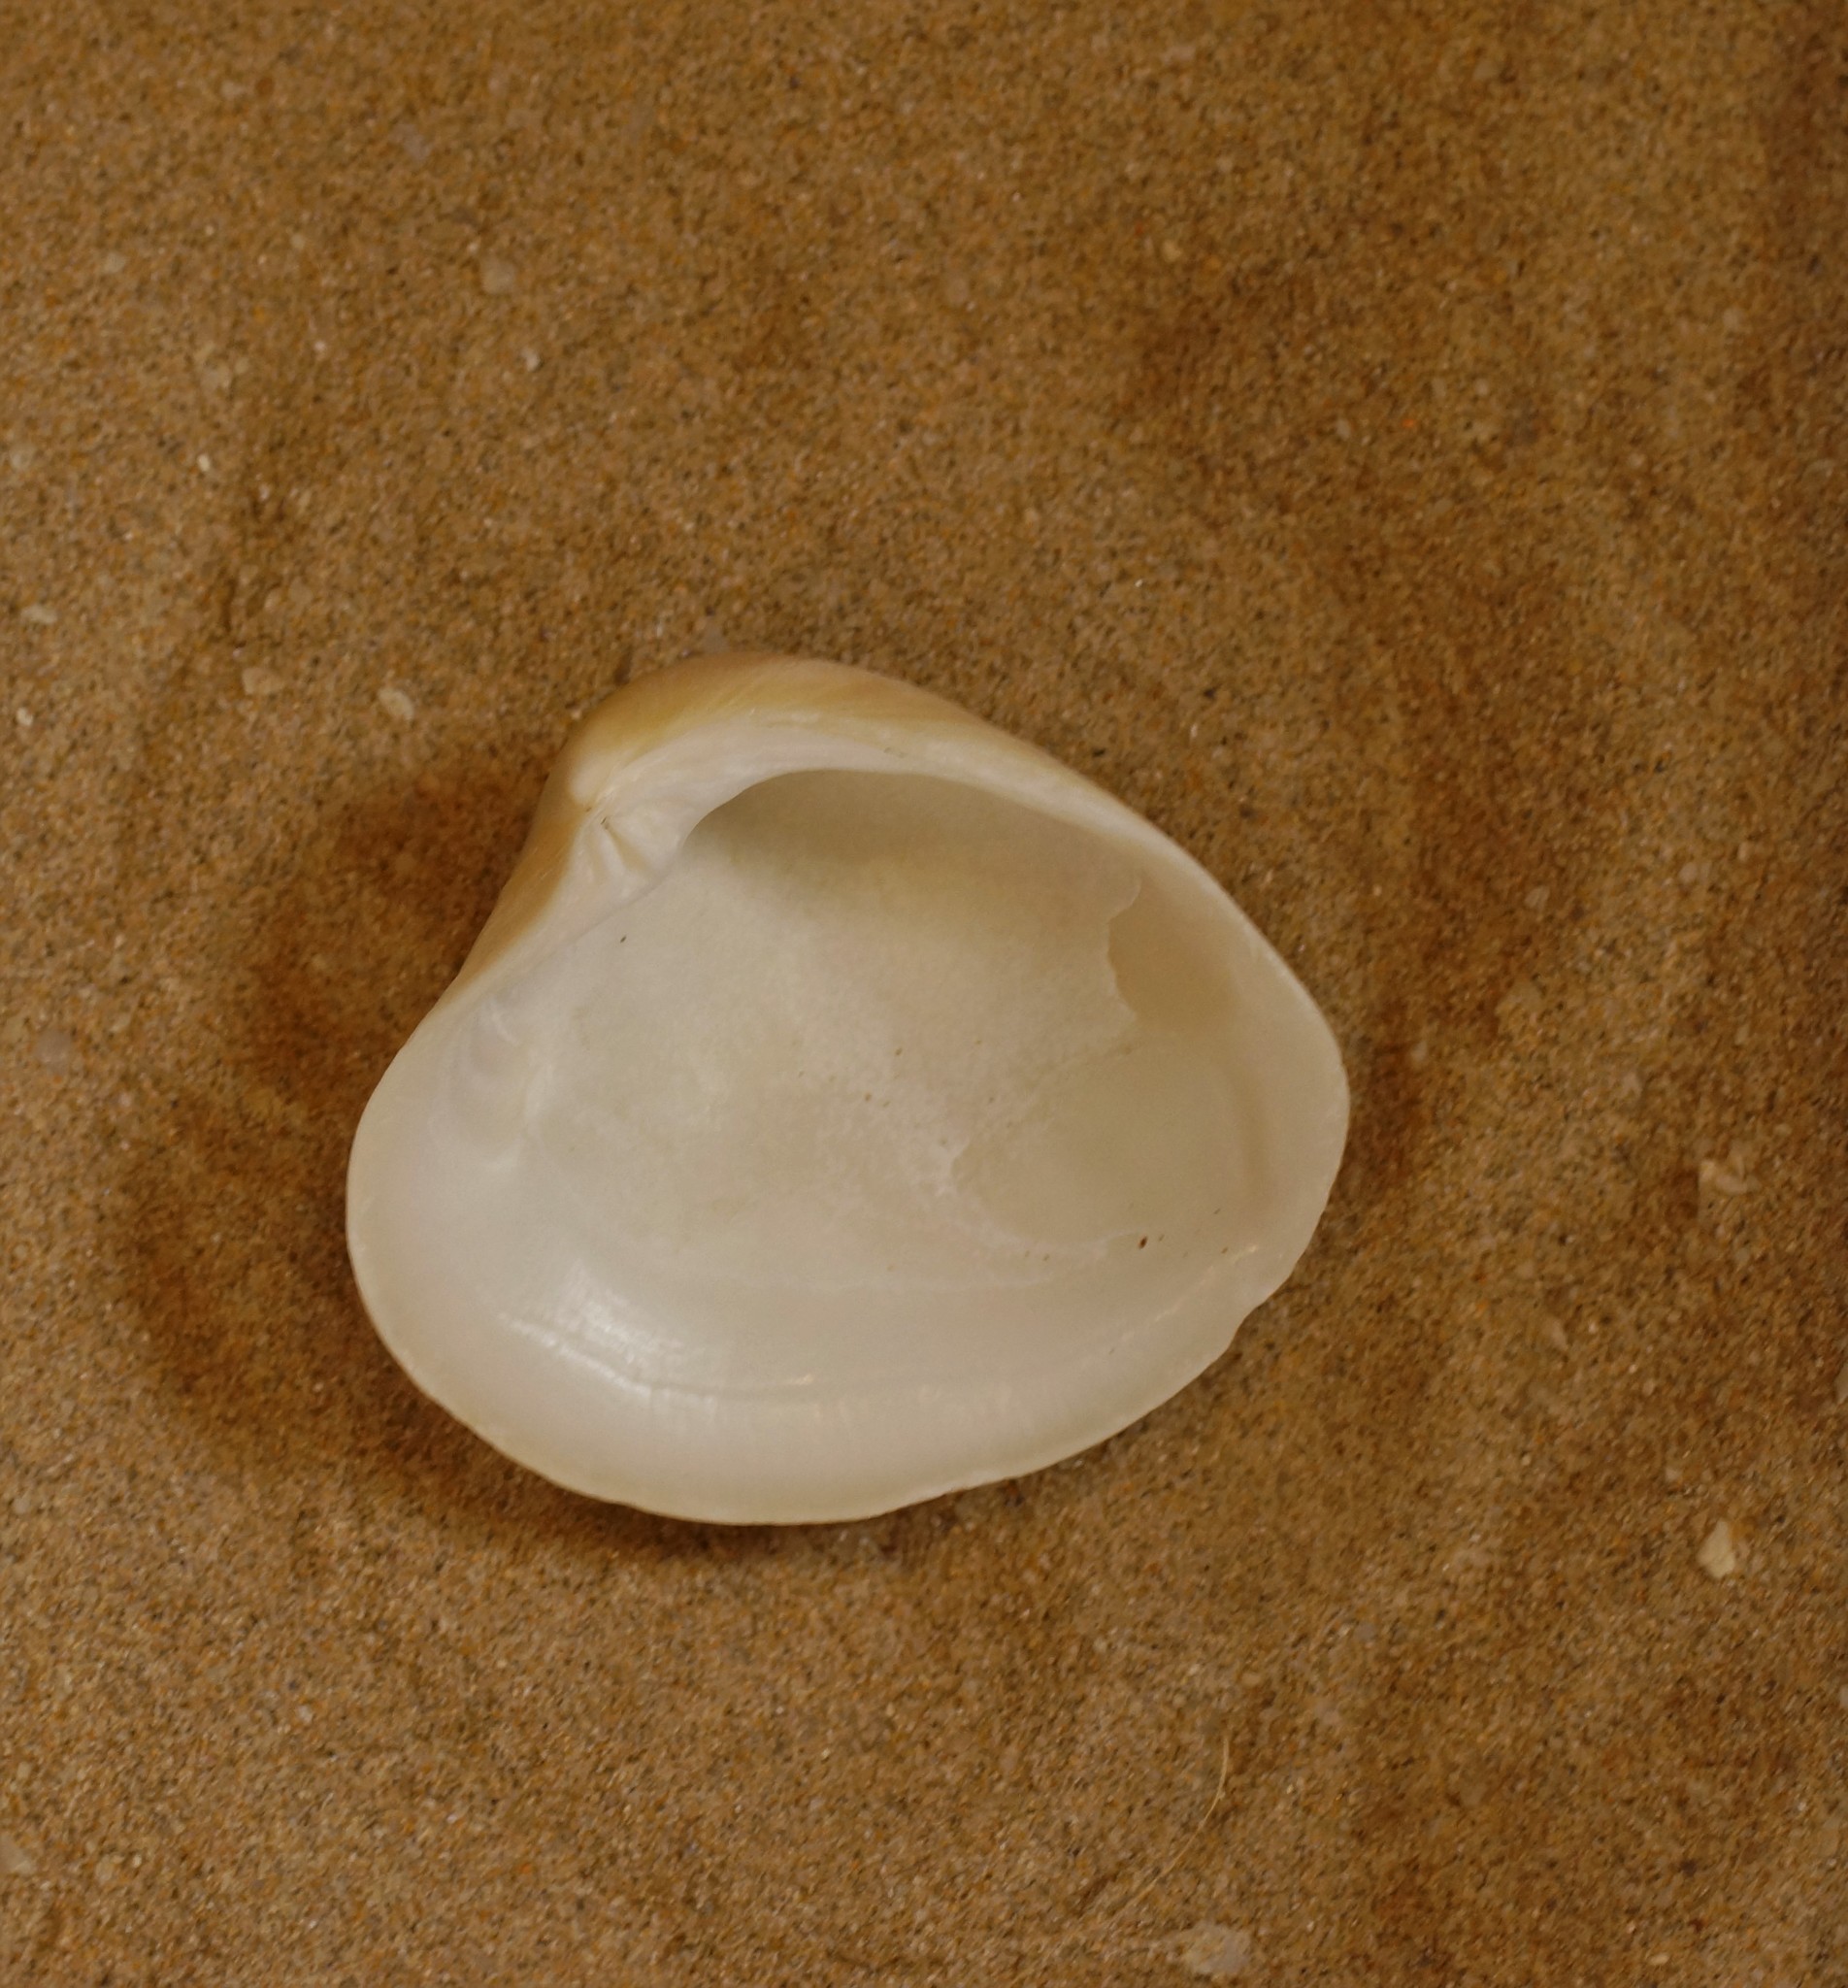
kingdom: Animalia
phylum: Mollusca
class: Bivalvia
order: Venerida
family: Veneridae
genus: Bassina
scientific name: Bassina pachyphylla
